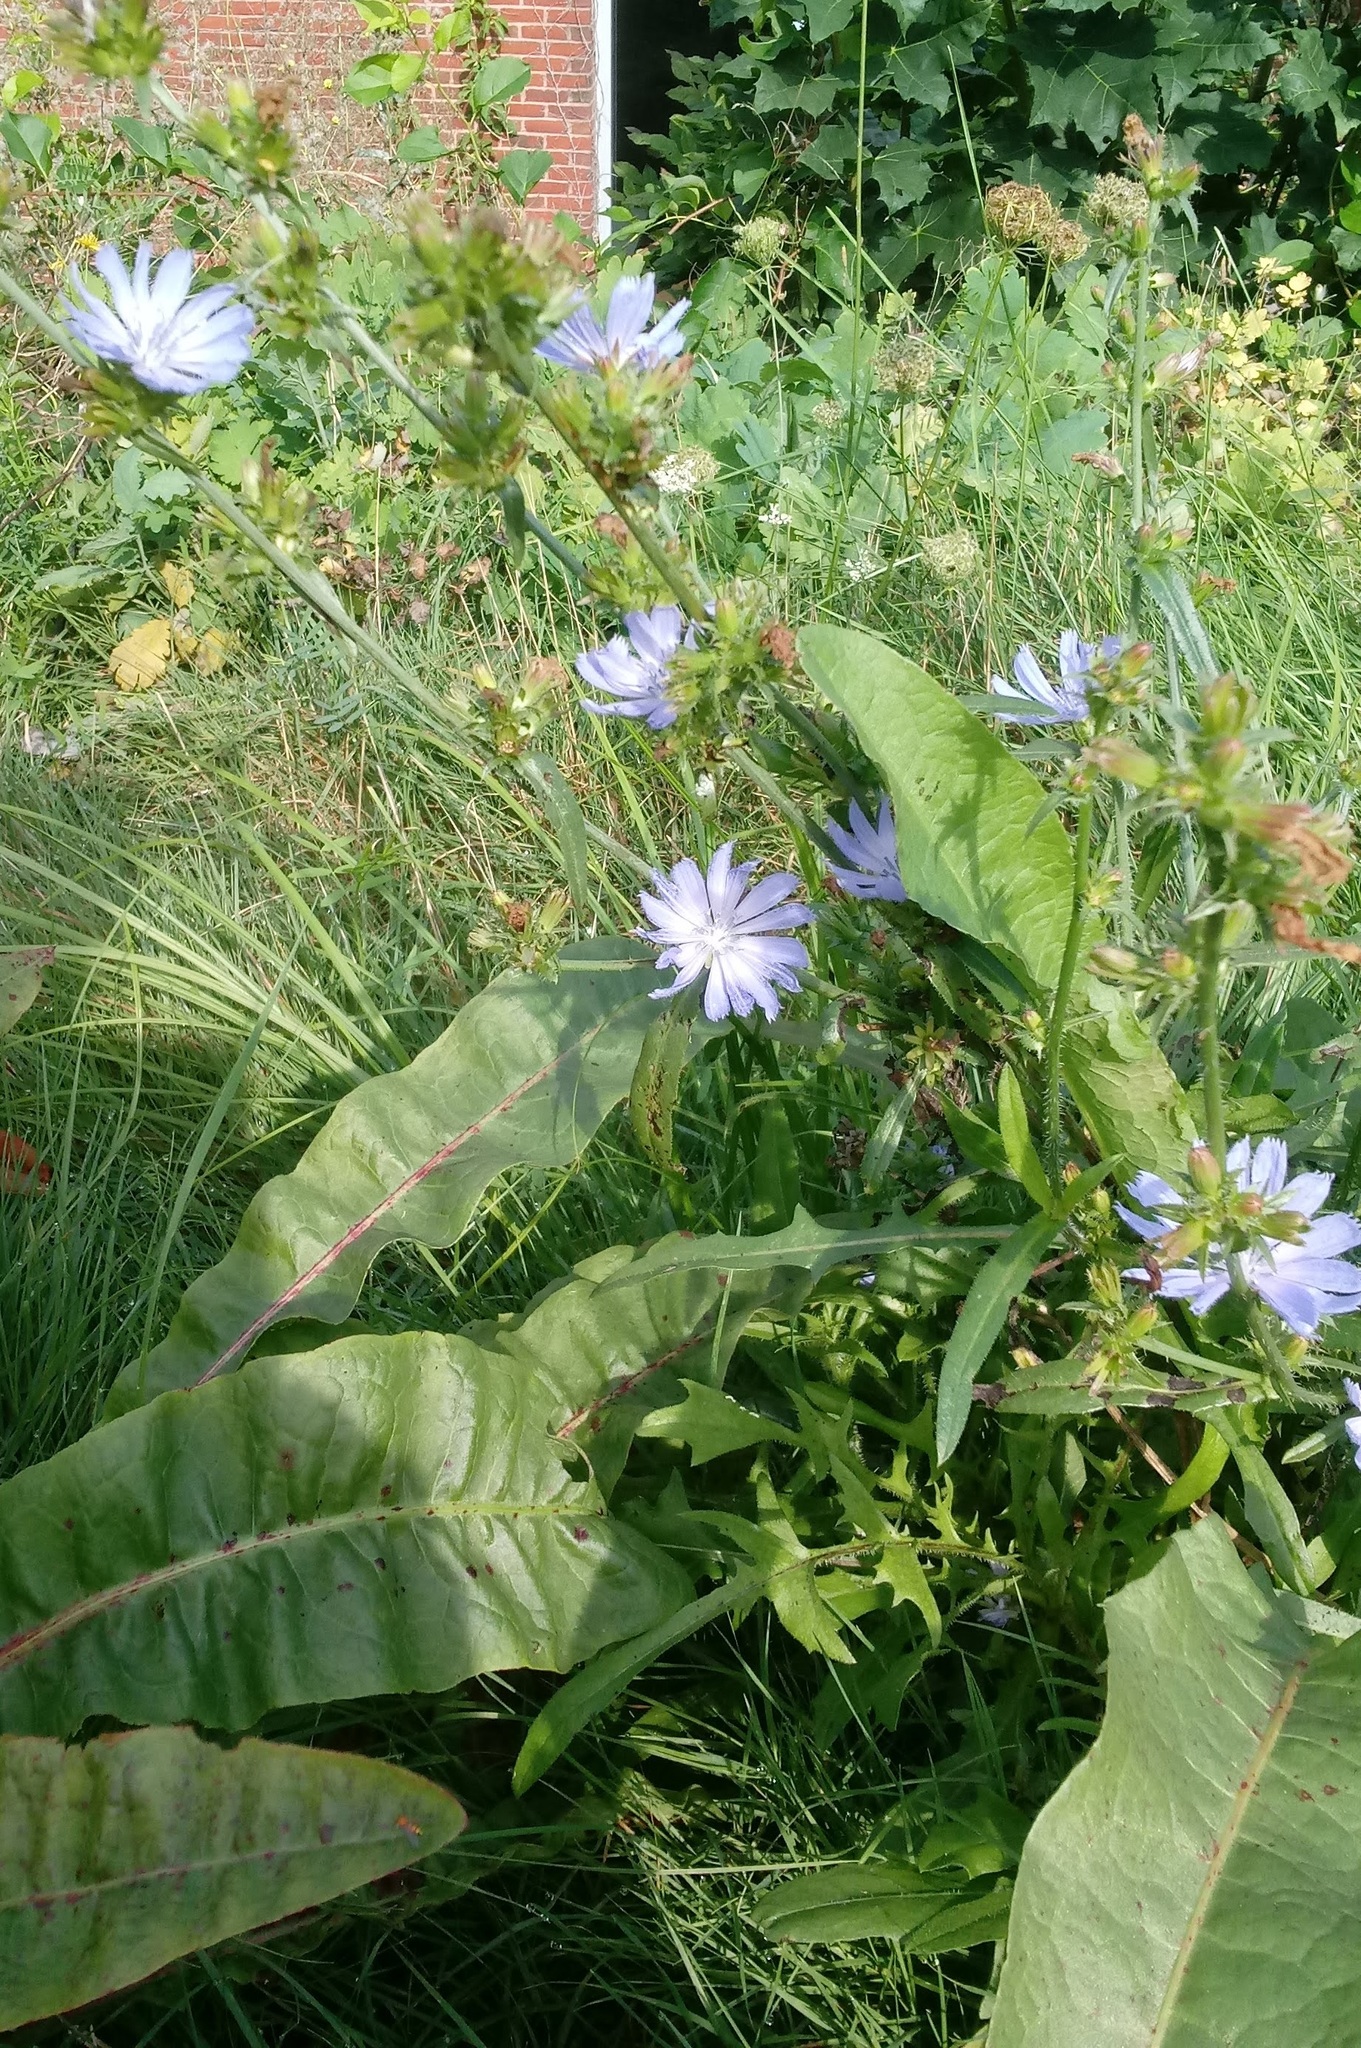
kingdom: Plantae
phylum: Tracheophyta
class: Magnoliopsida
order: Asterales
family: Asteraceae
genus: Cichorium
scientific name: Cichorium intybus
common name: Chicory
